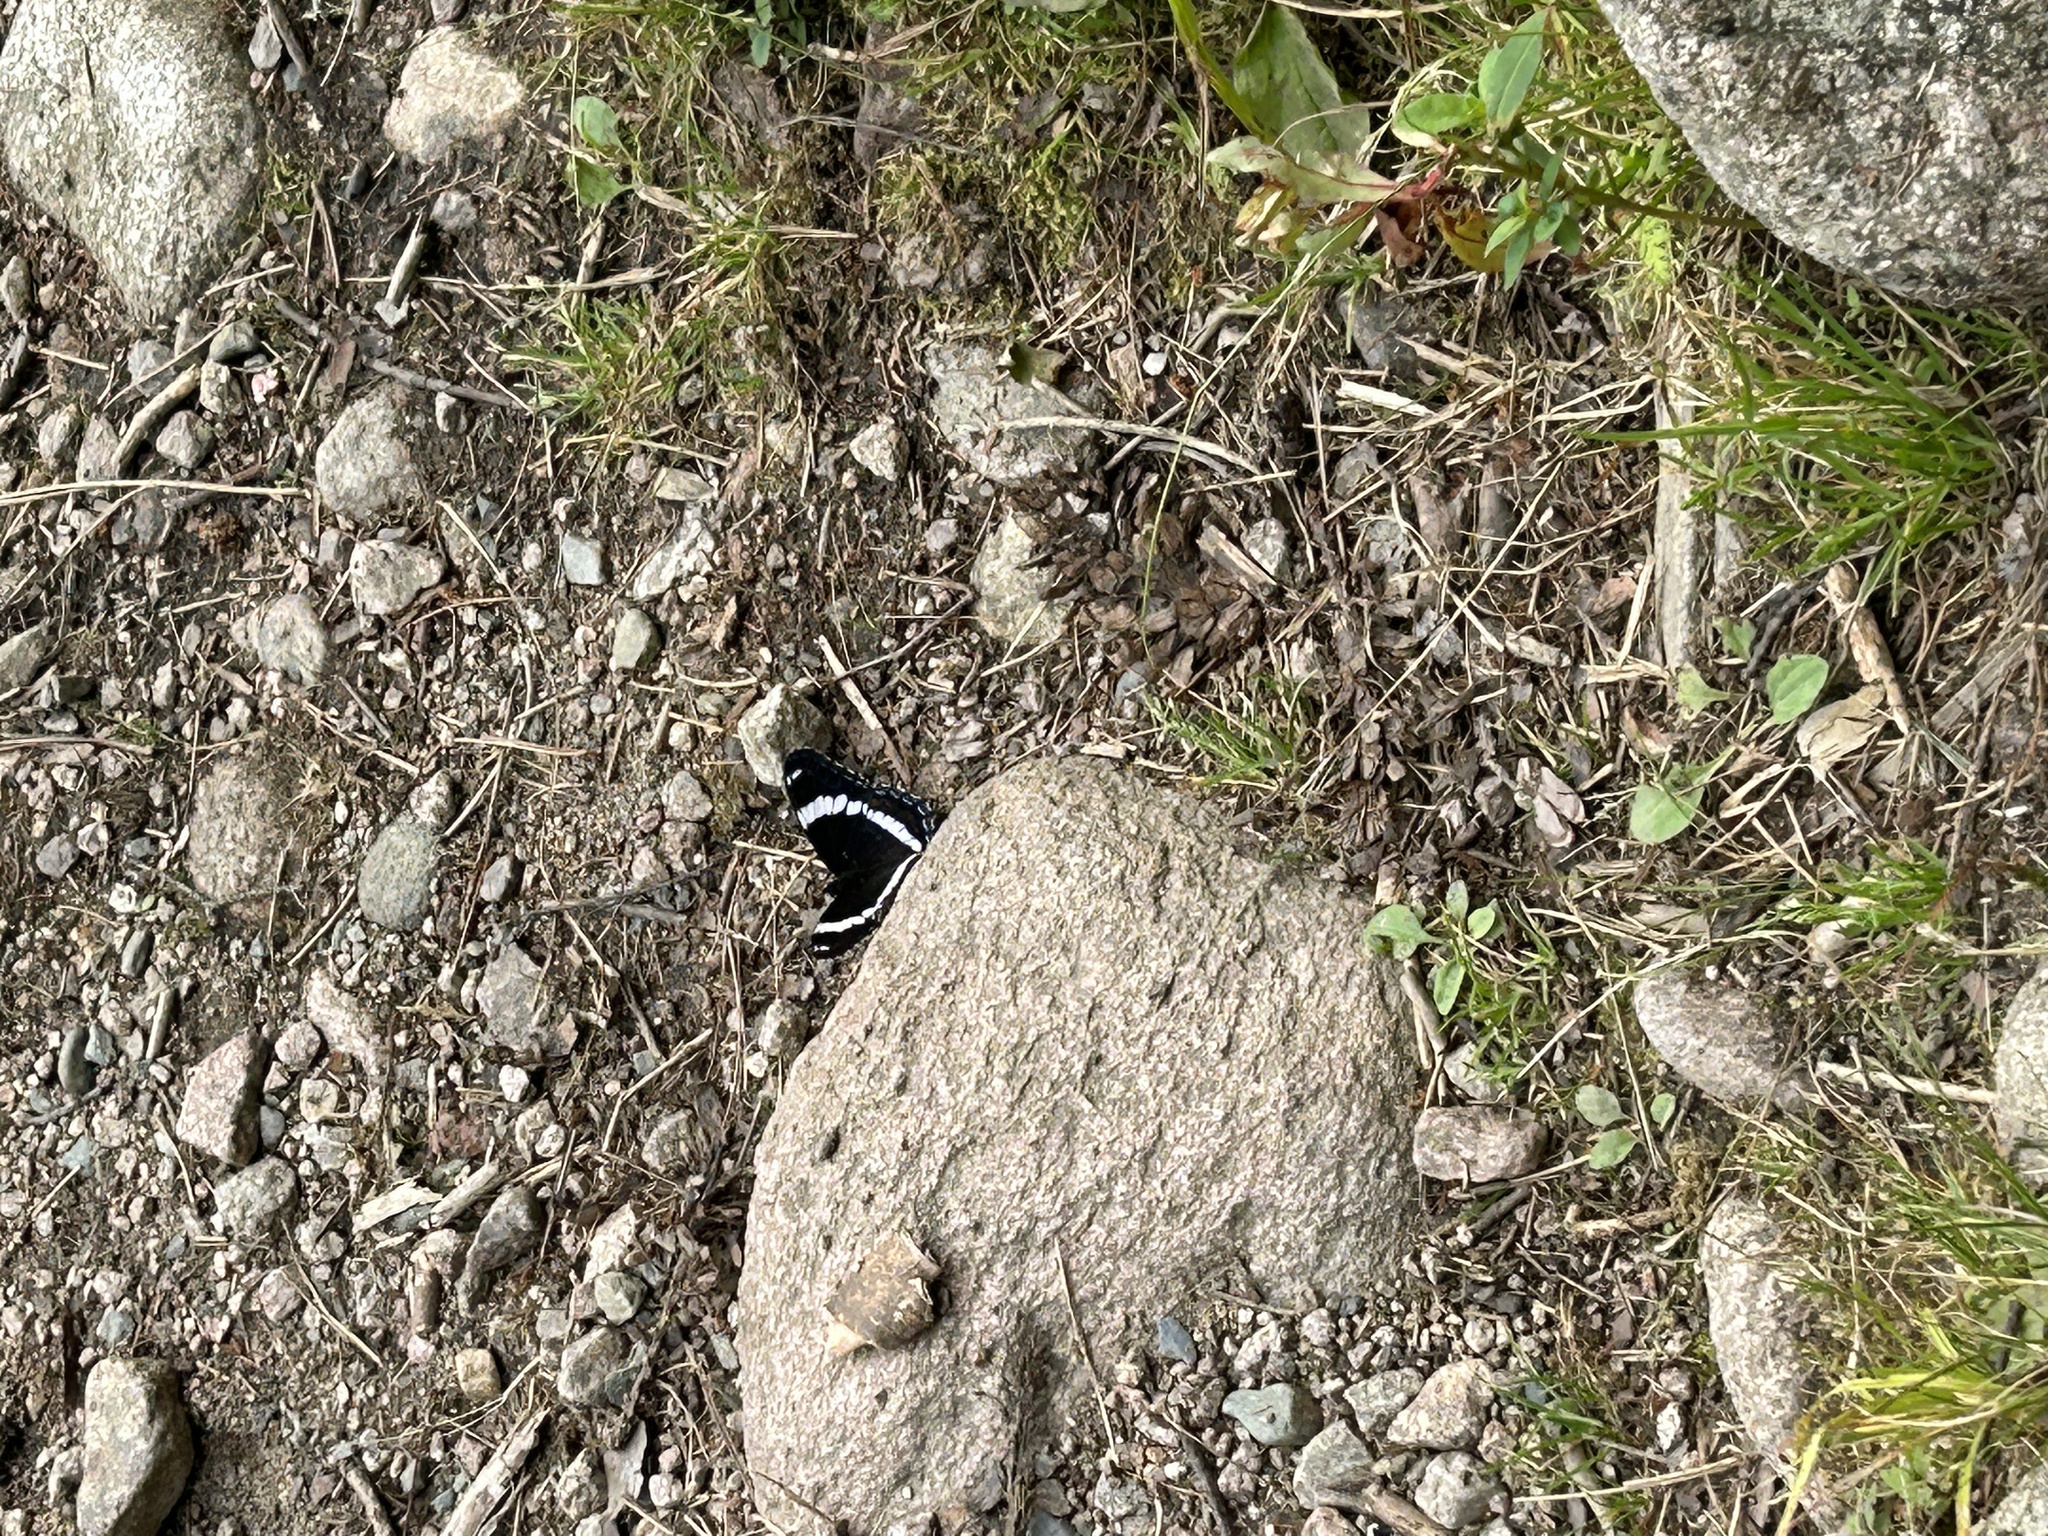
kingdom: Animalia
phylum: Arthropoda
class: Insecta
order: Lepidoptera
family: Nymphalidae
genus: Limenitis
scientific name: Limenitis arthemis
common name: Red-spotted admiral
